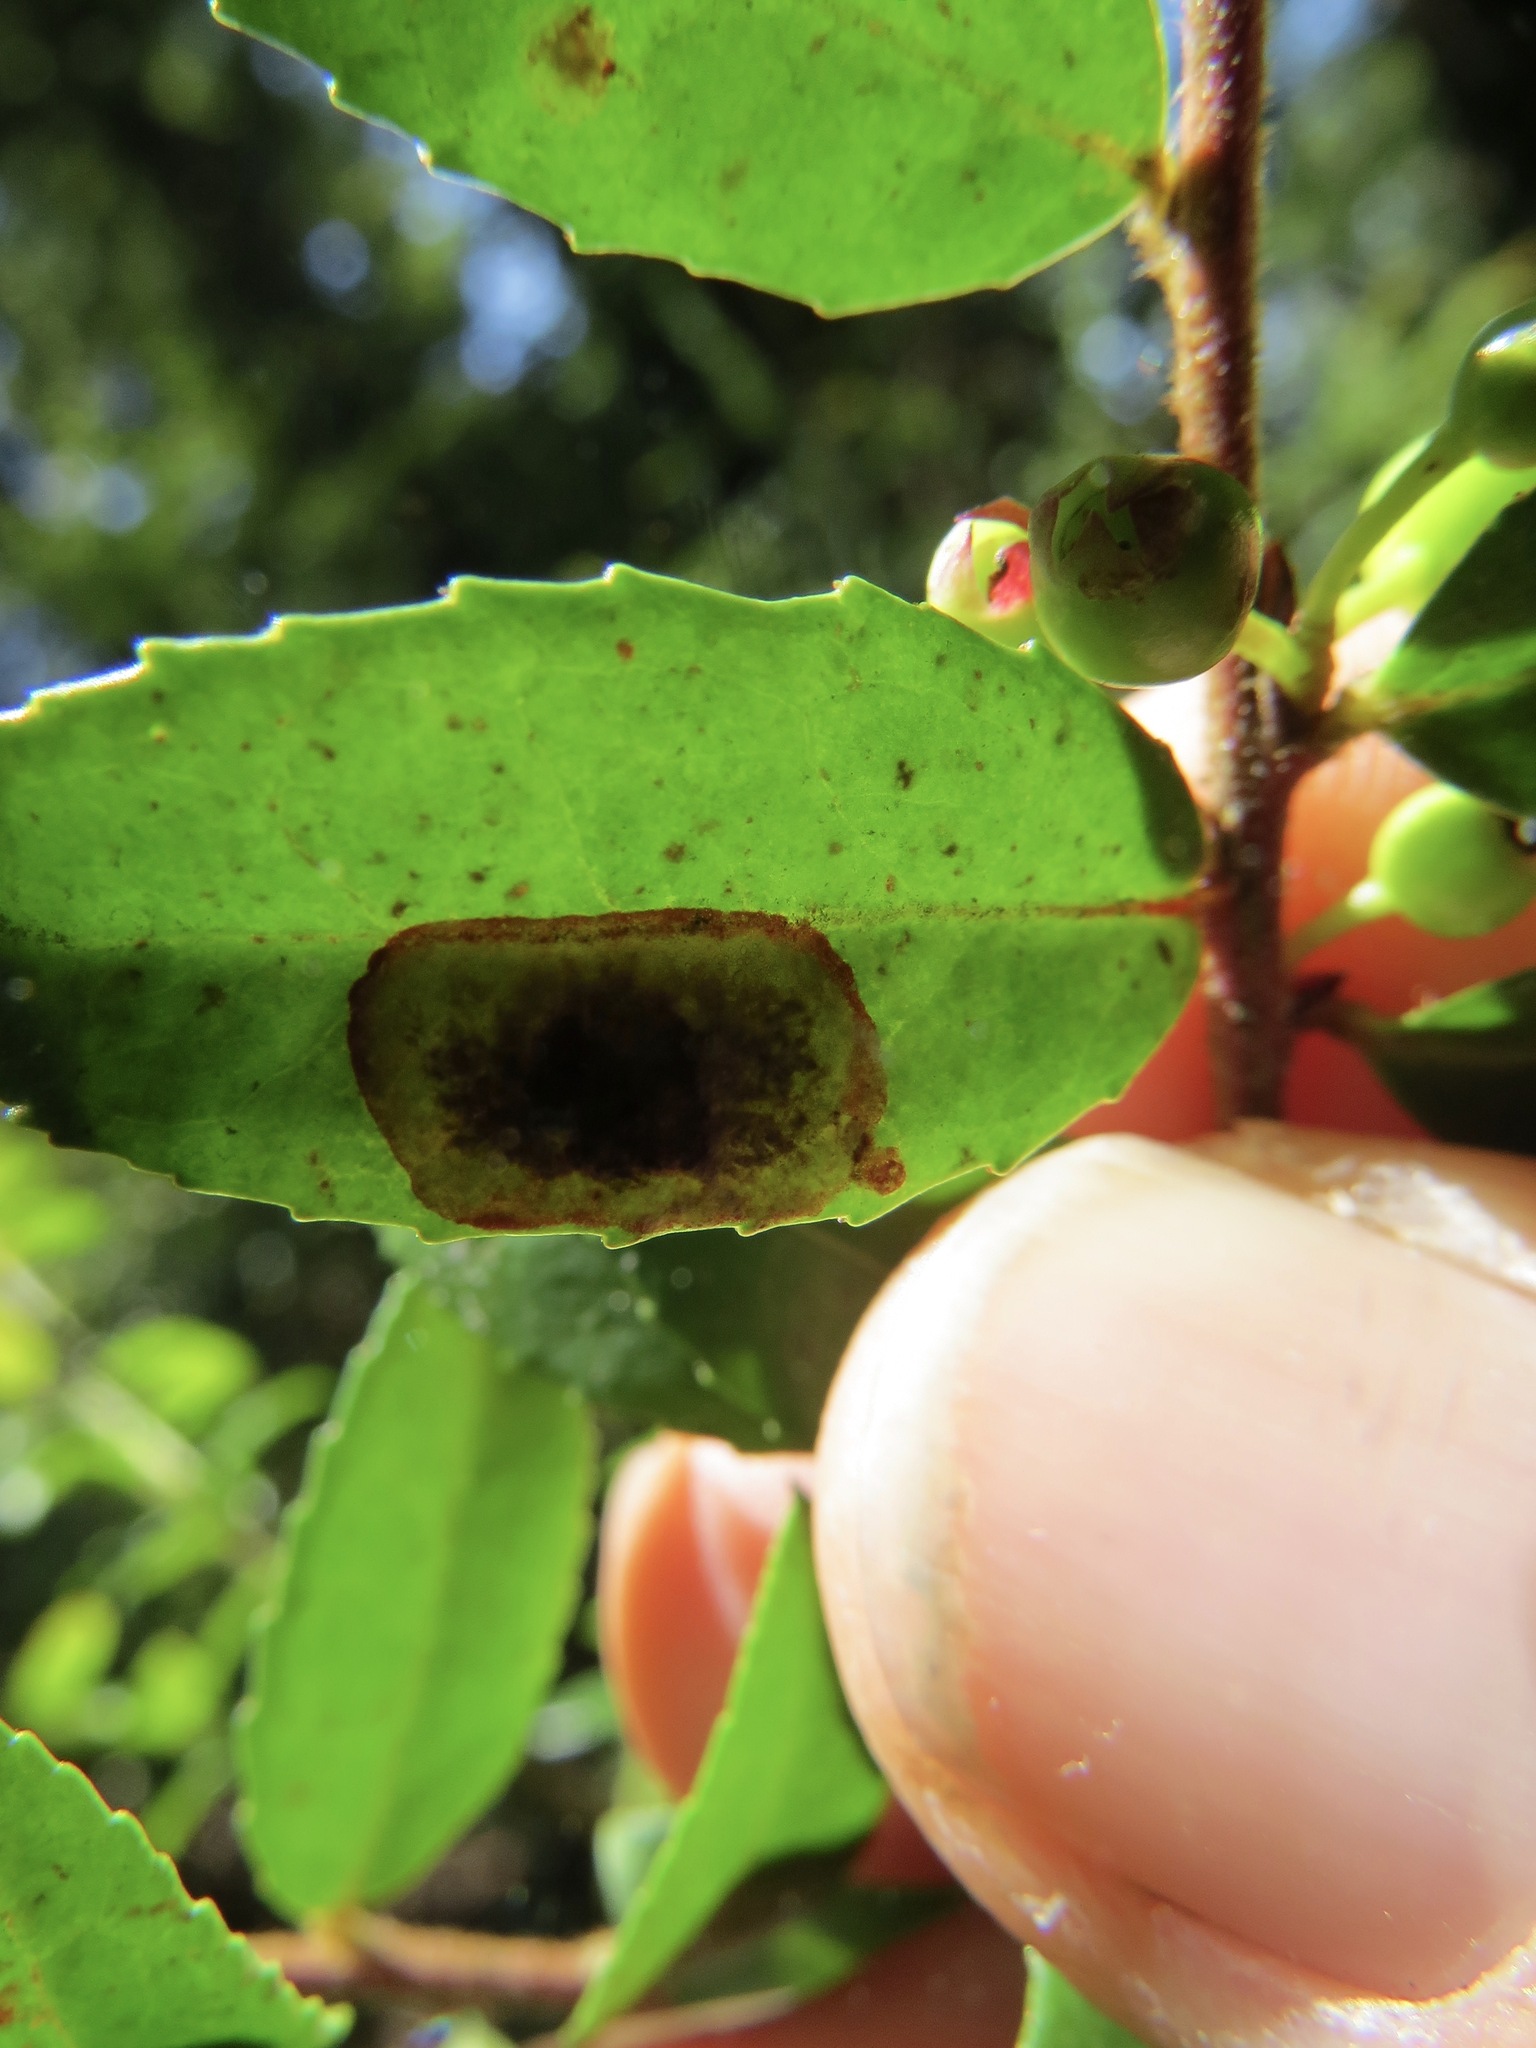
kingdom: Animalia
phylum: Arthropoda
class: Insecta
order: Lepidoptera
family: Gracillariidae
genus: Cameraria
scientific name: Cameraria nemoris
